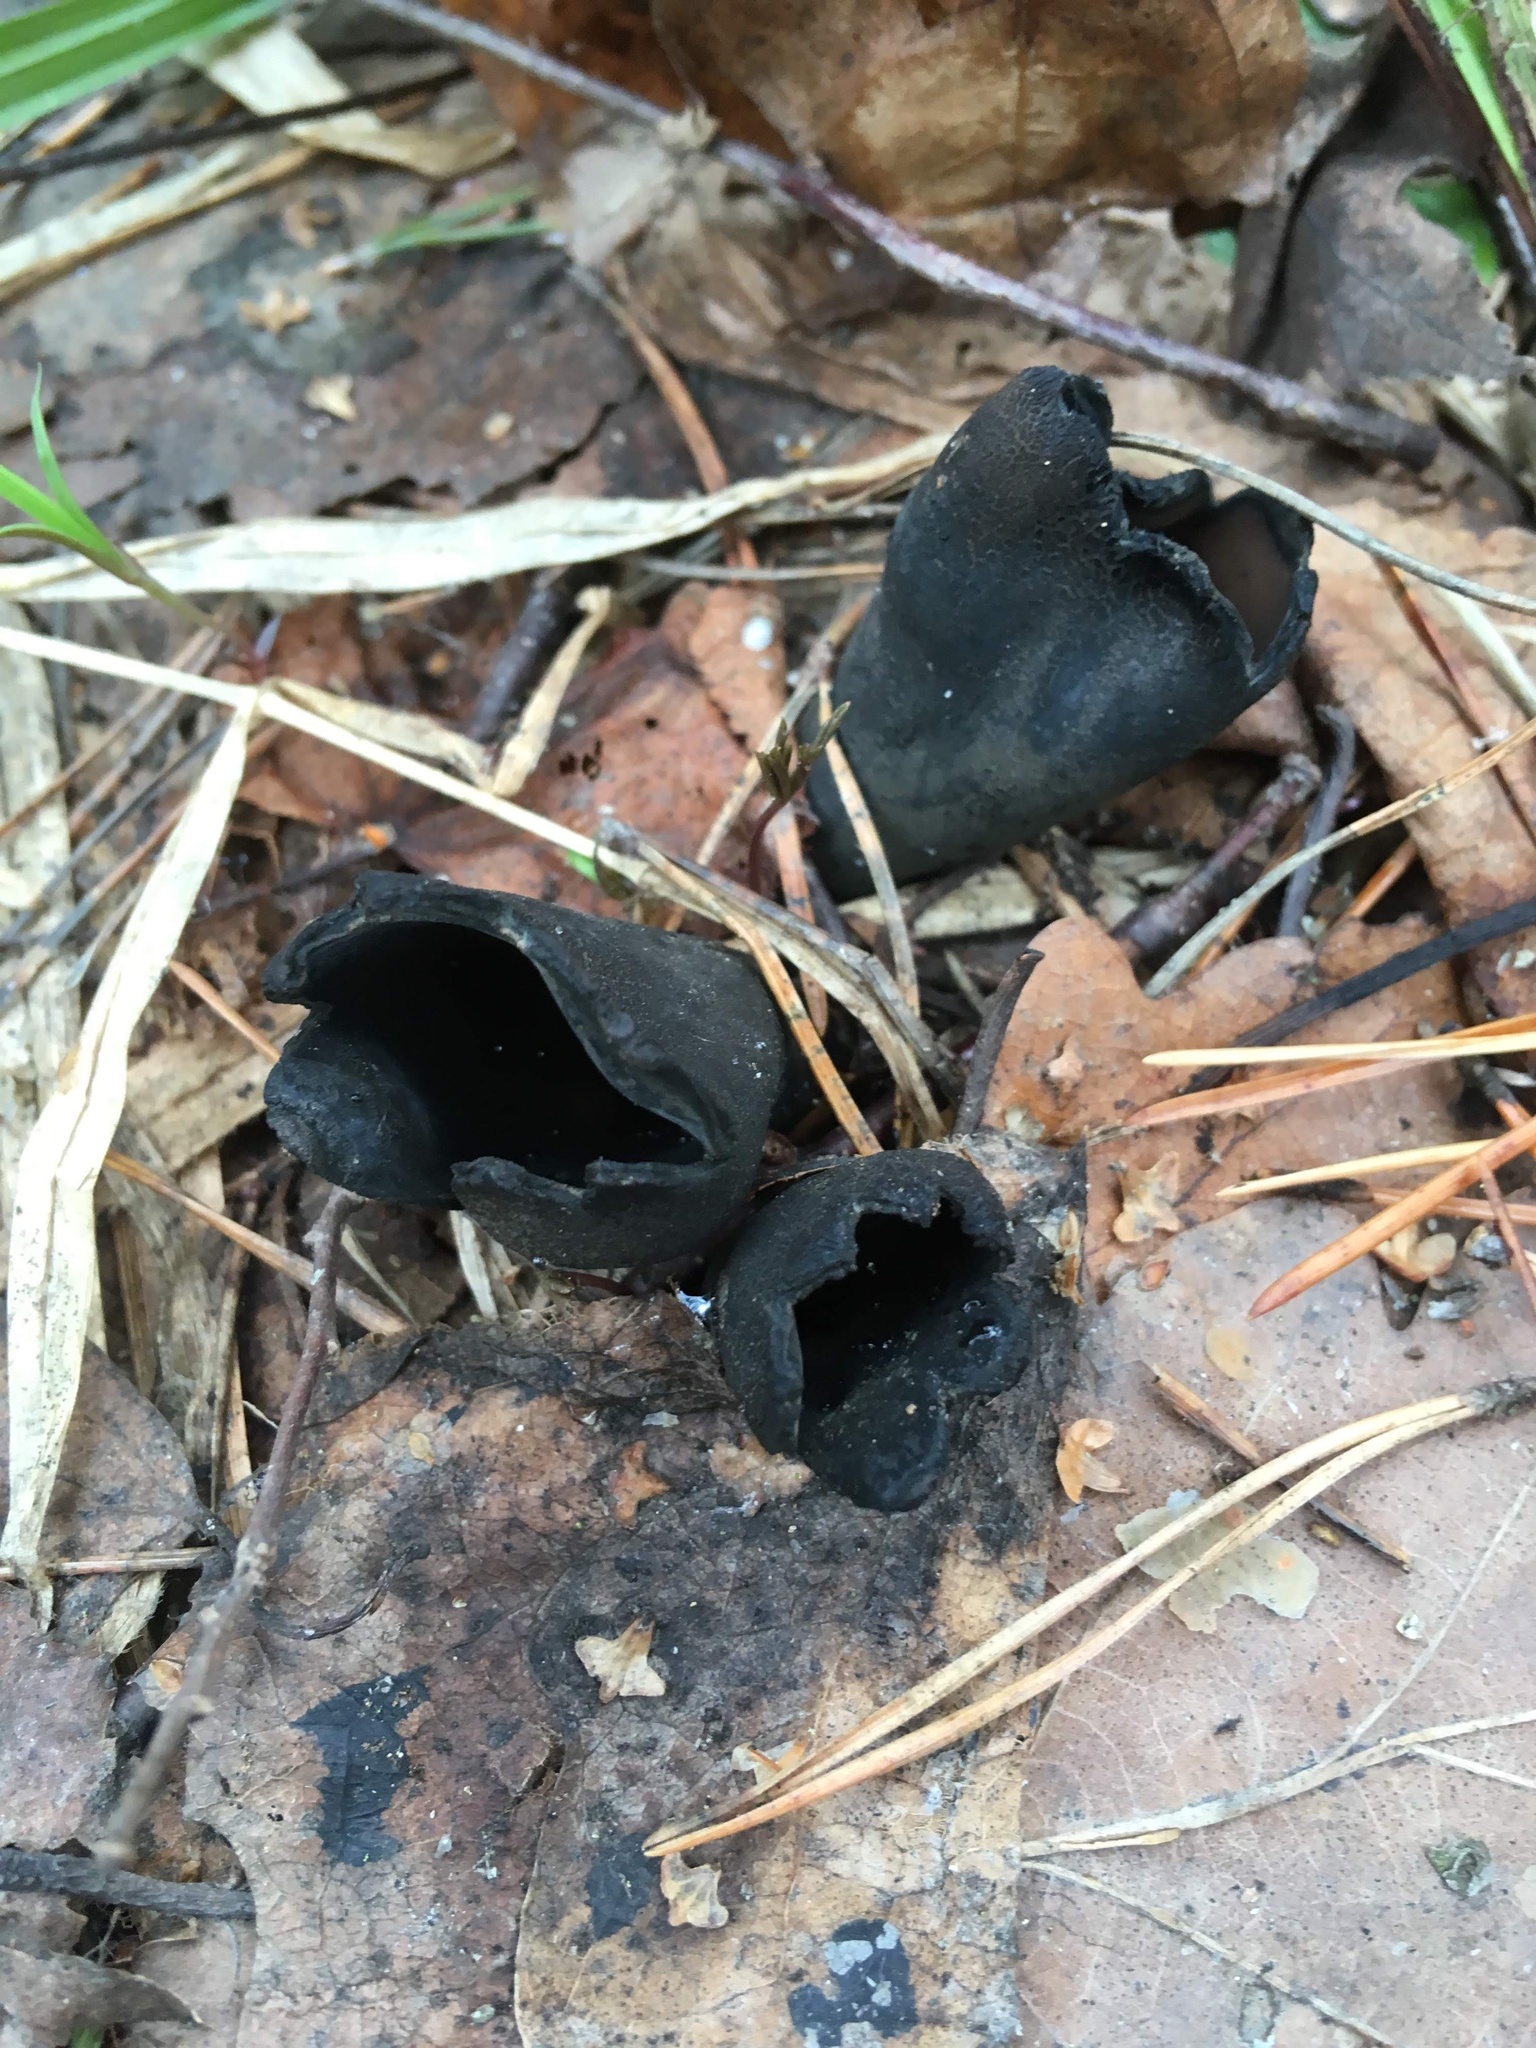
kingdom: Fungi
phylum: Ascomycota
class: Pezizomycetes
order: Pezizales
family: Sarcosomataceae
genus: Urnula
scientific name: Urnula craterium
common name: Devil's urn
